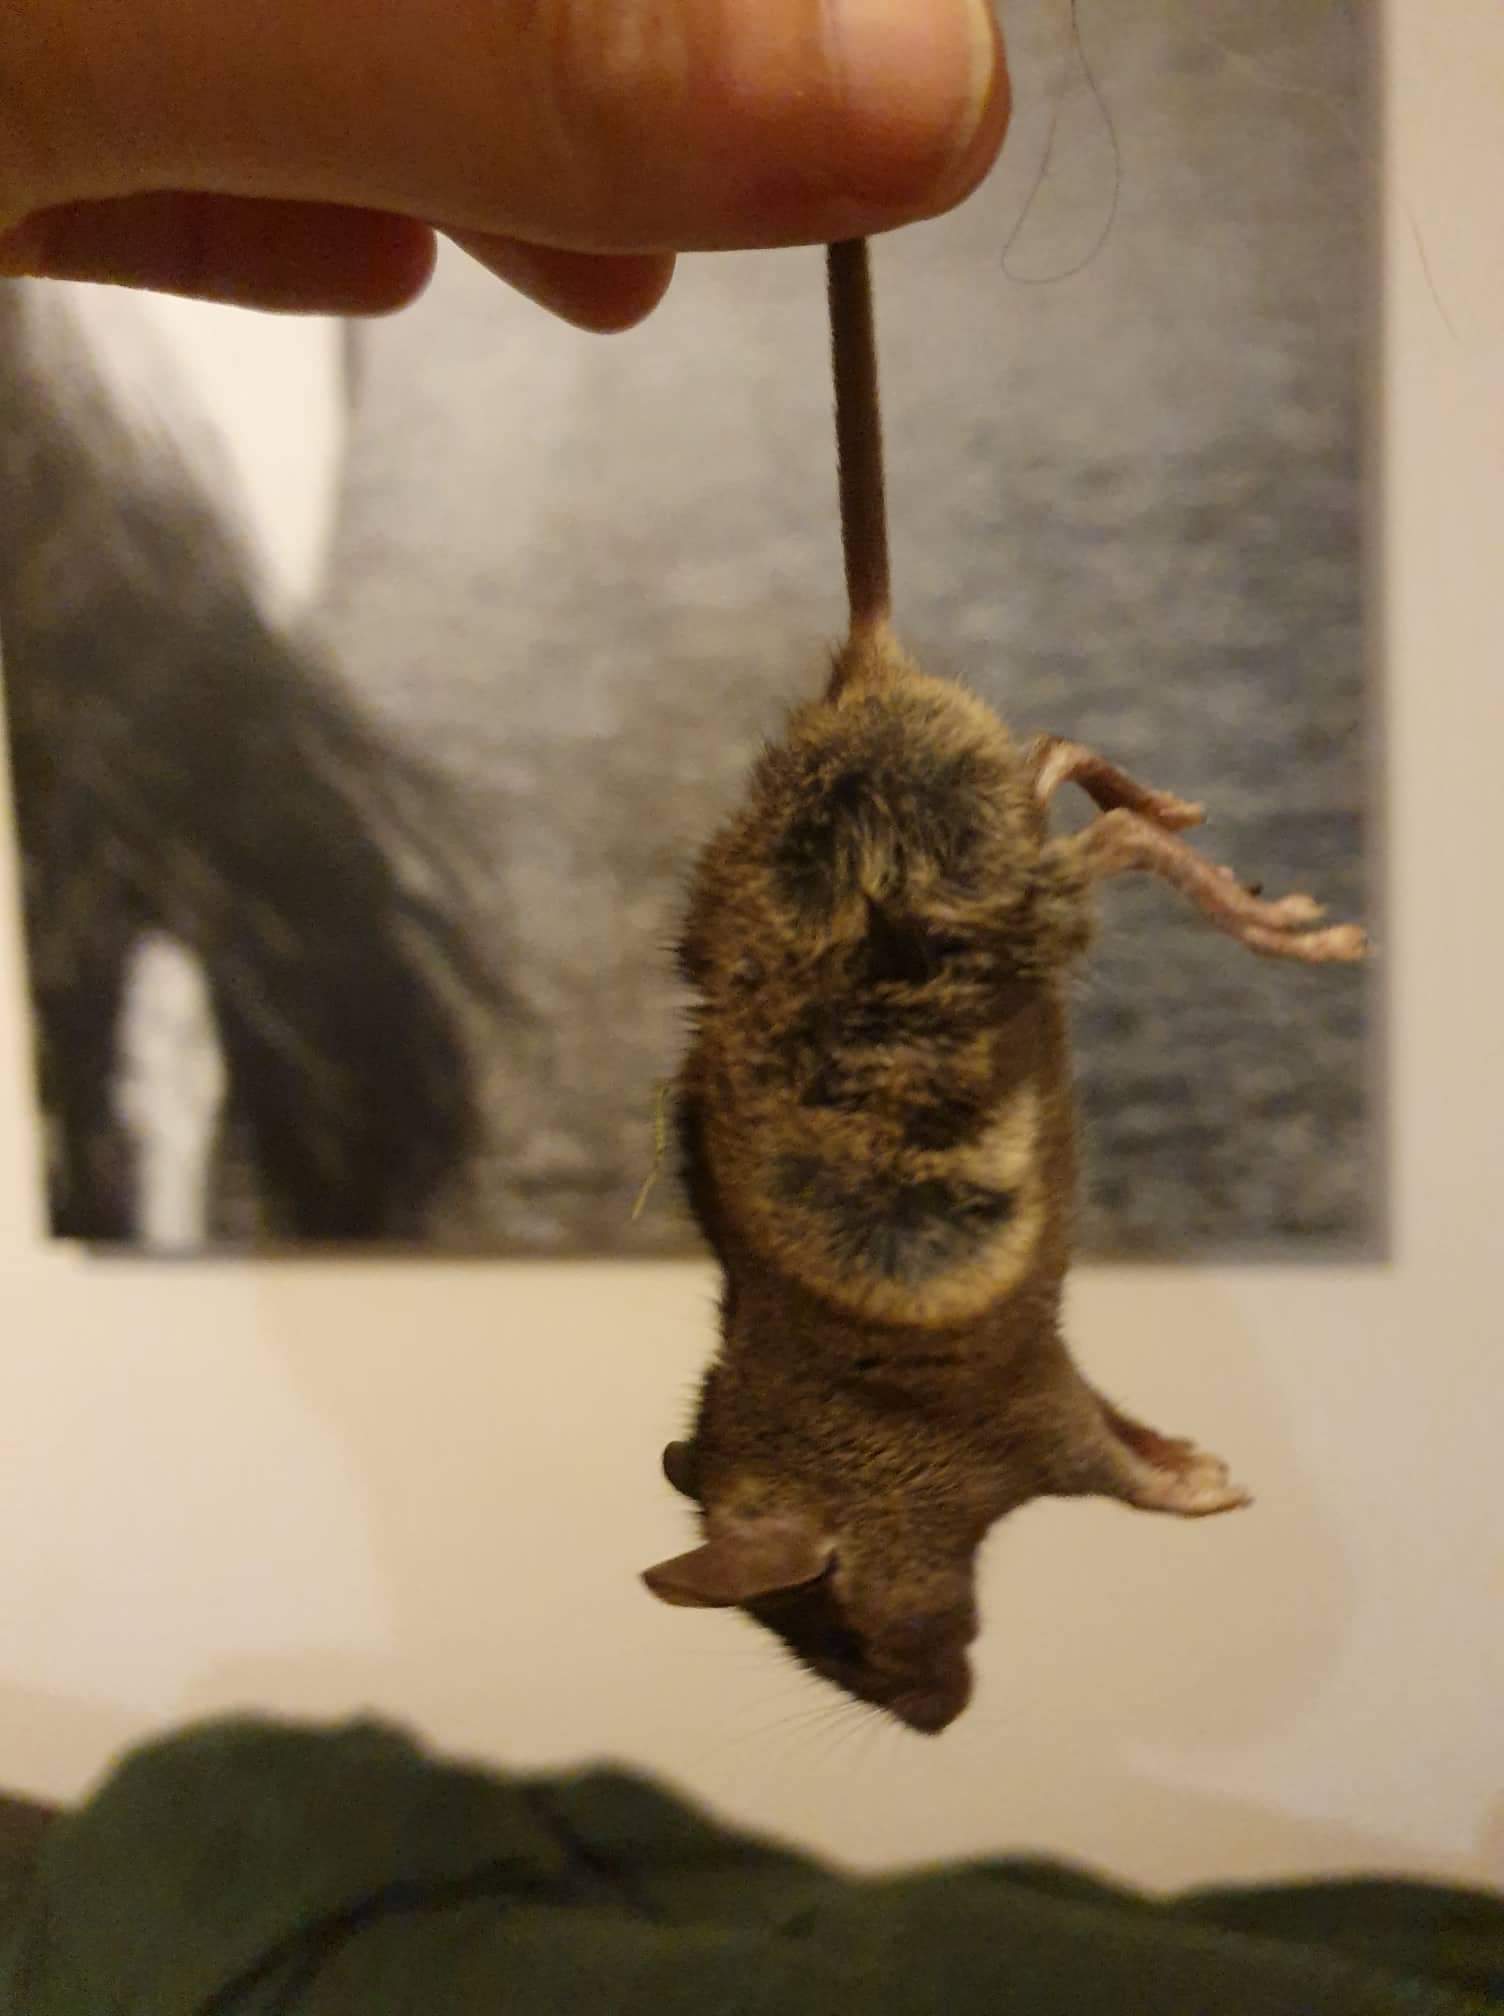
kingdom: Animalia
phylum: Chordata
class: Mammalia
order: Rodentia
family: Muridae
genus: Mus
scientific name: Mus musculus
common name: House mouse
